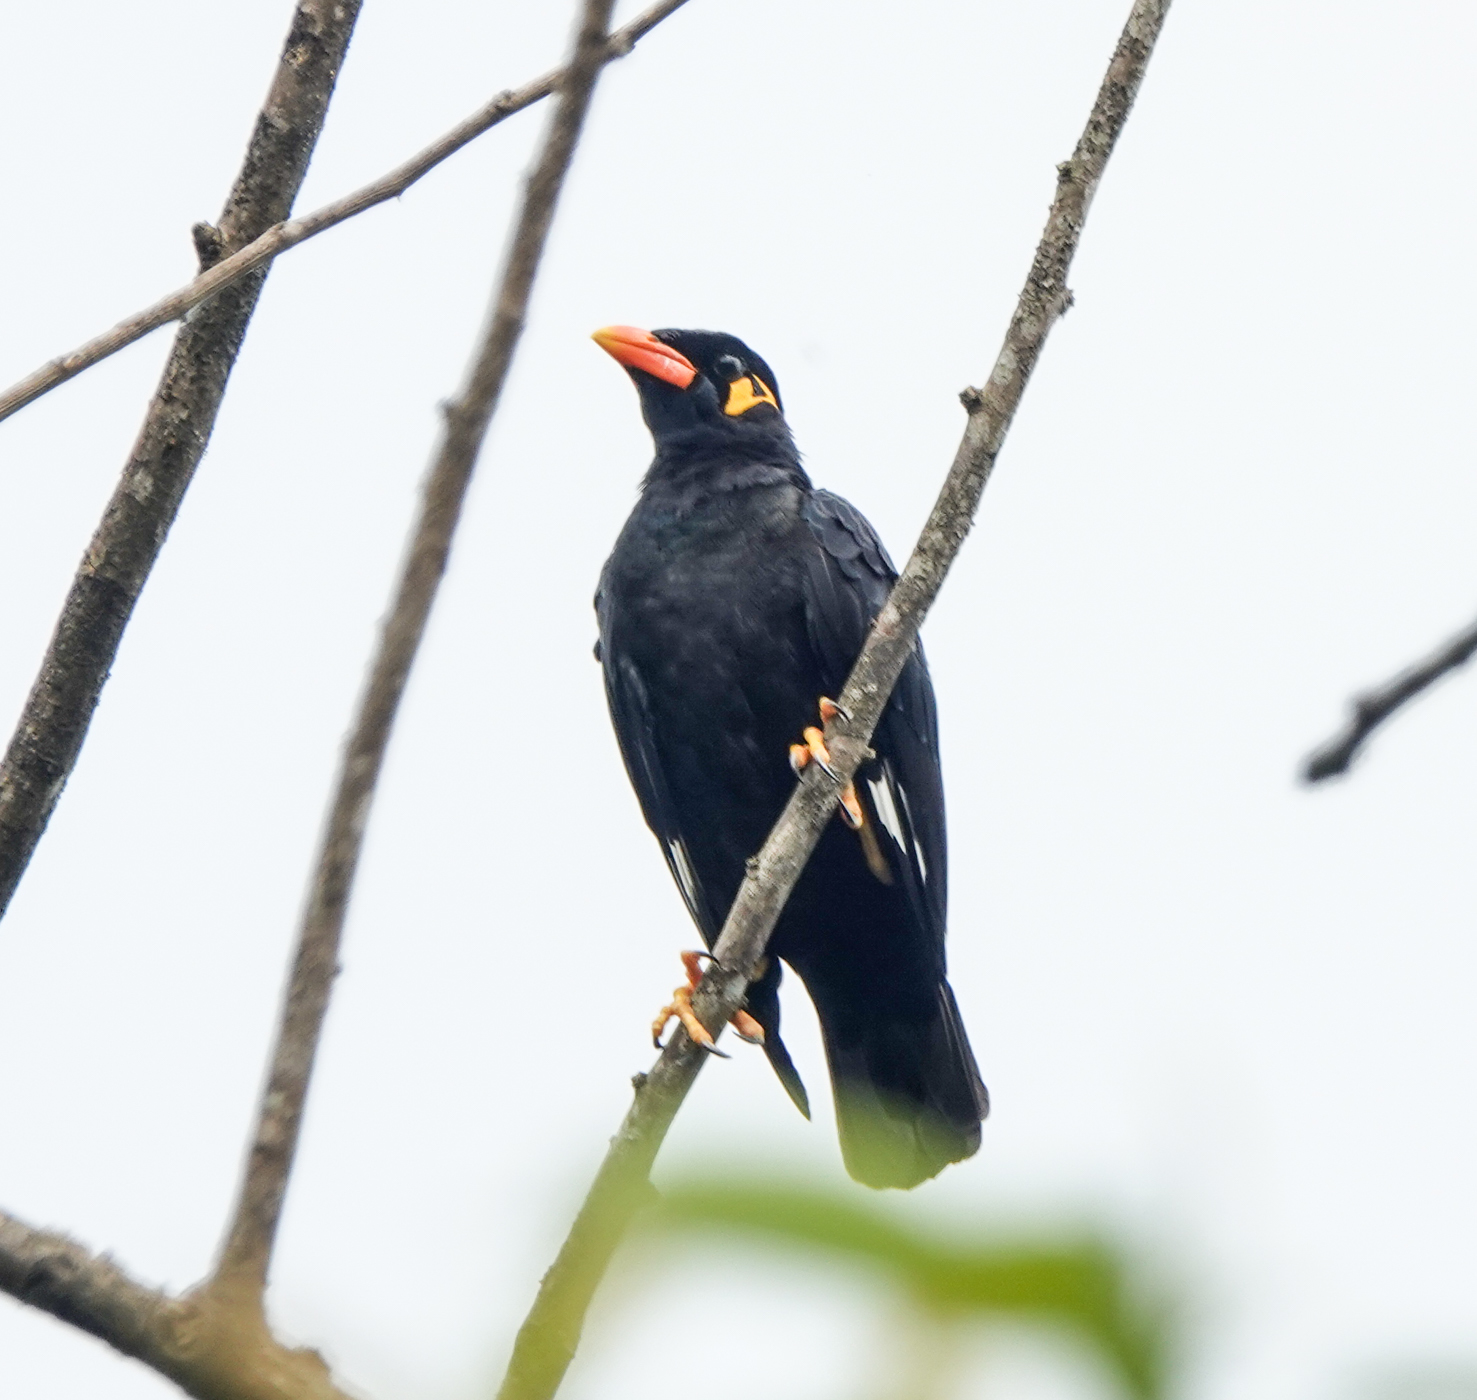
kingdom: Animalia
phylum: Chordata
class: Aves
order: Passeriformes
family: Sturnidae
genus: Gracula
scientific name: Gracula religiosa
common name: Common hill myna
